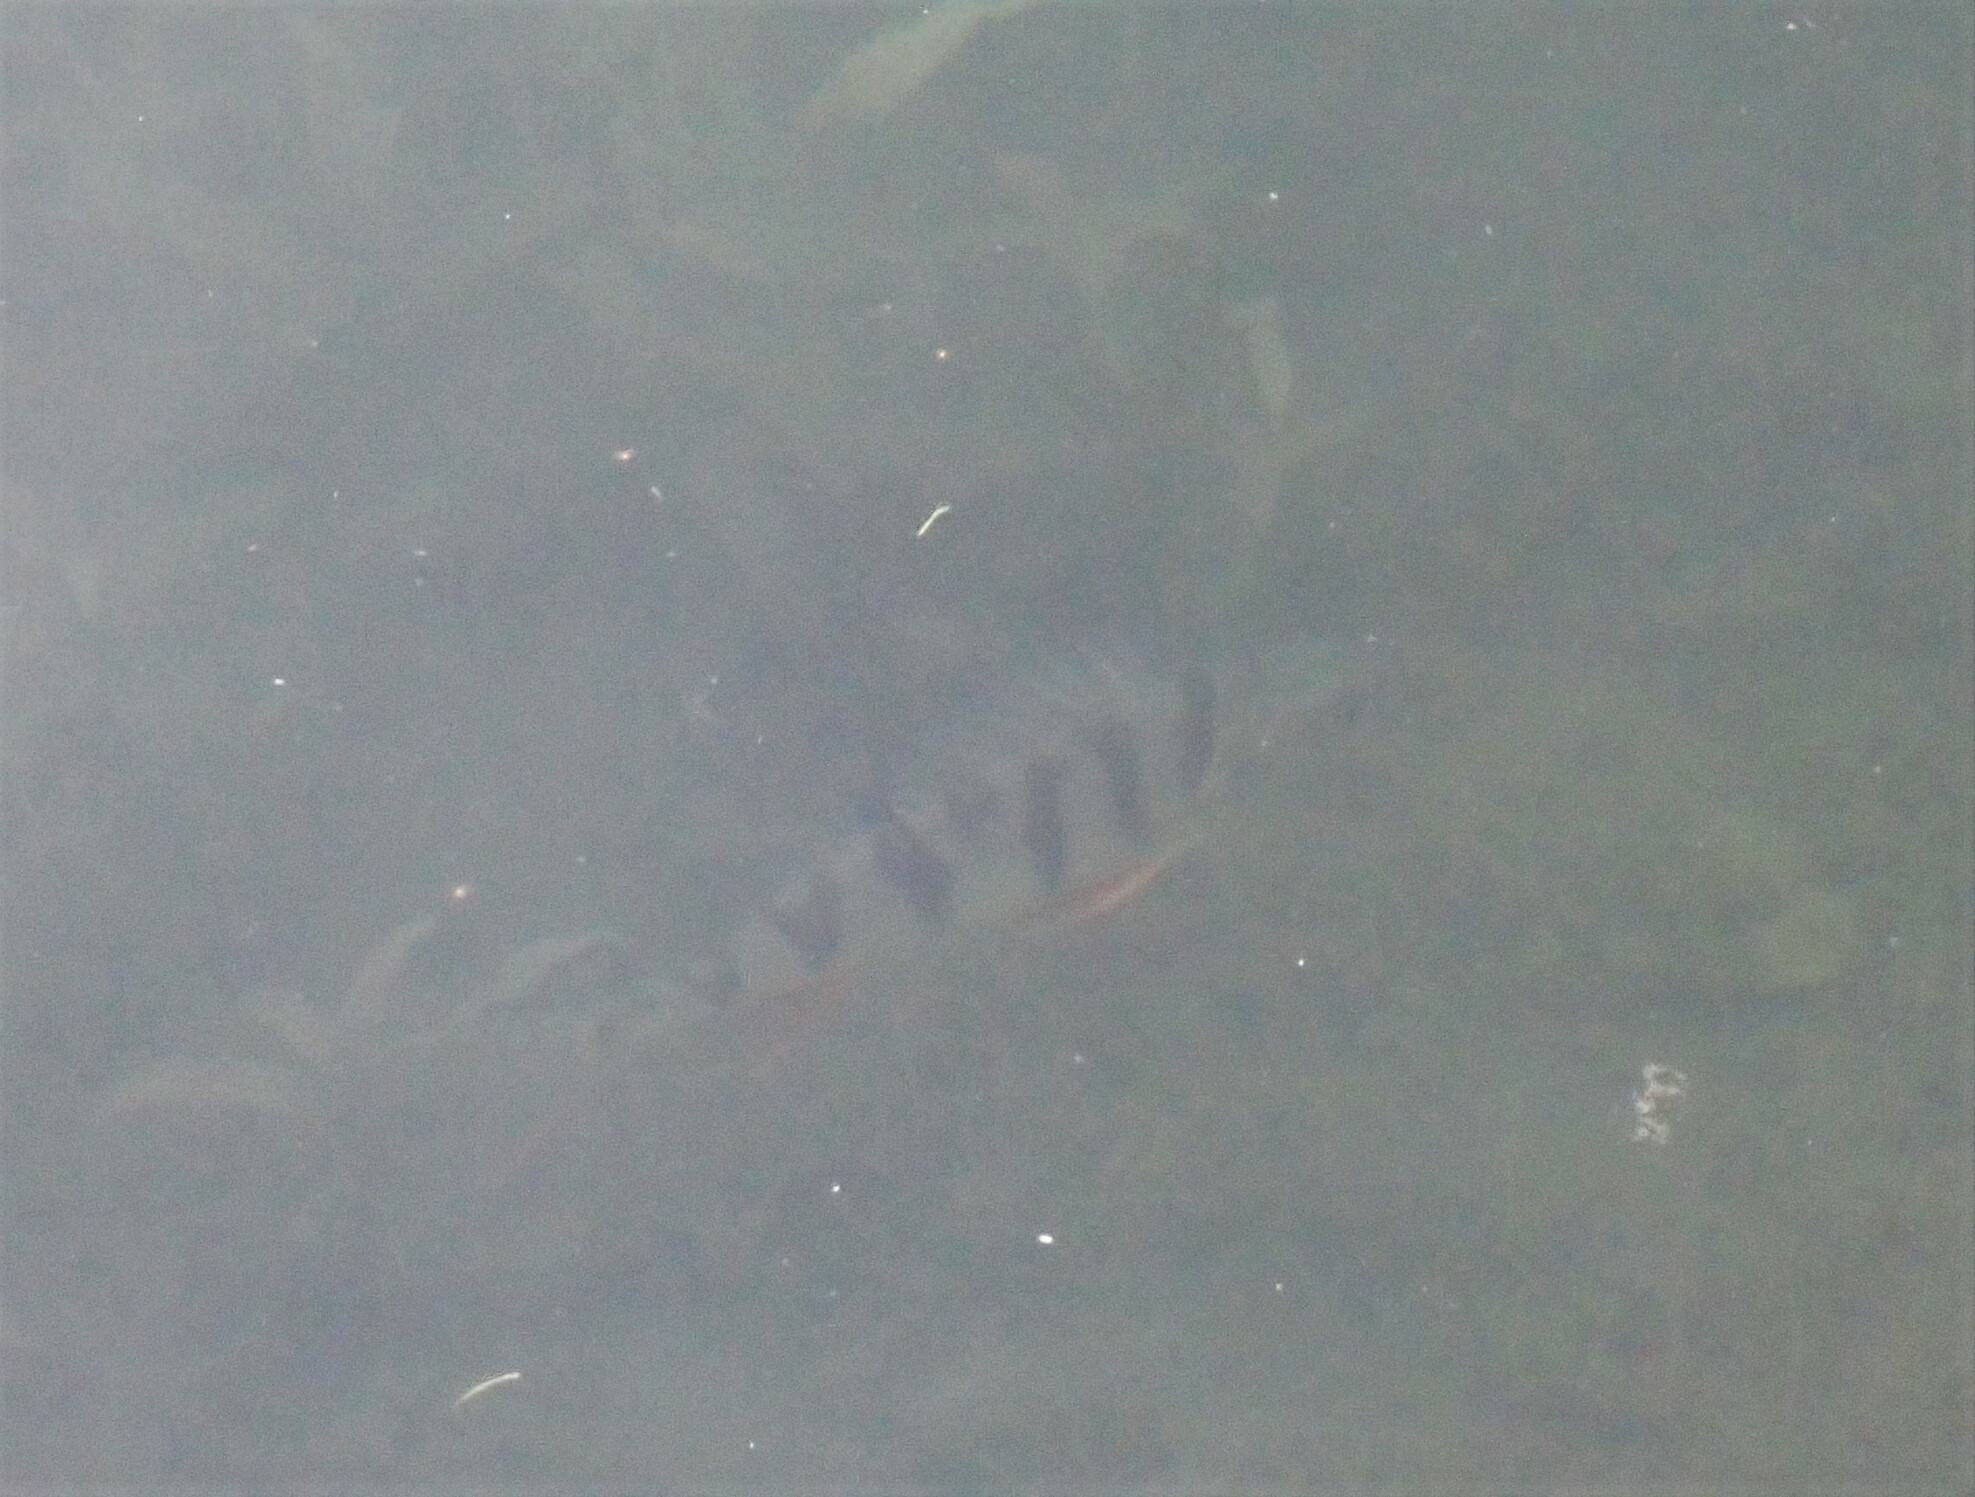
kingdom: Animalia
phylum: Chordata
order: Perciformes
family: Percidae
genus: Perca
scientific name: Perca fluviatilis
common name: Perch
